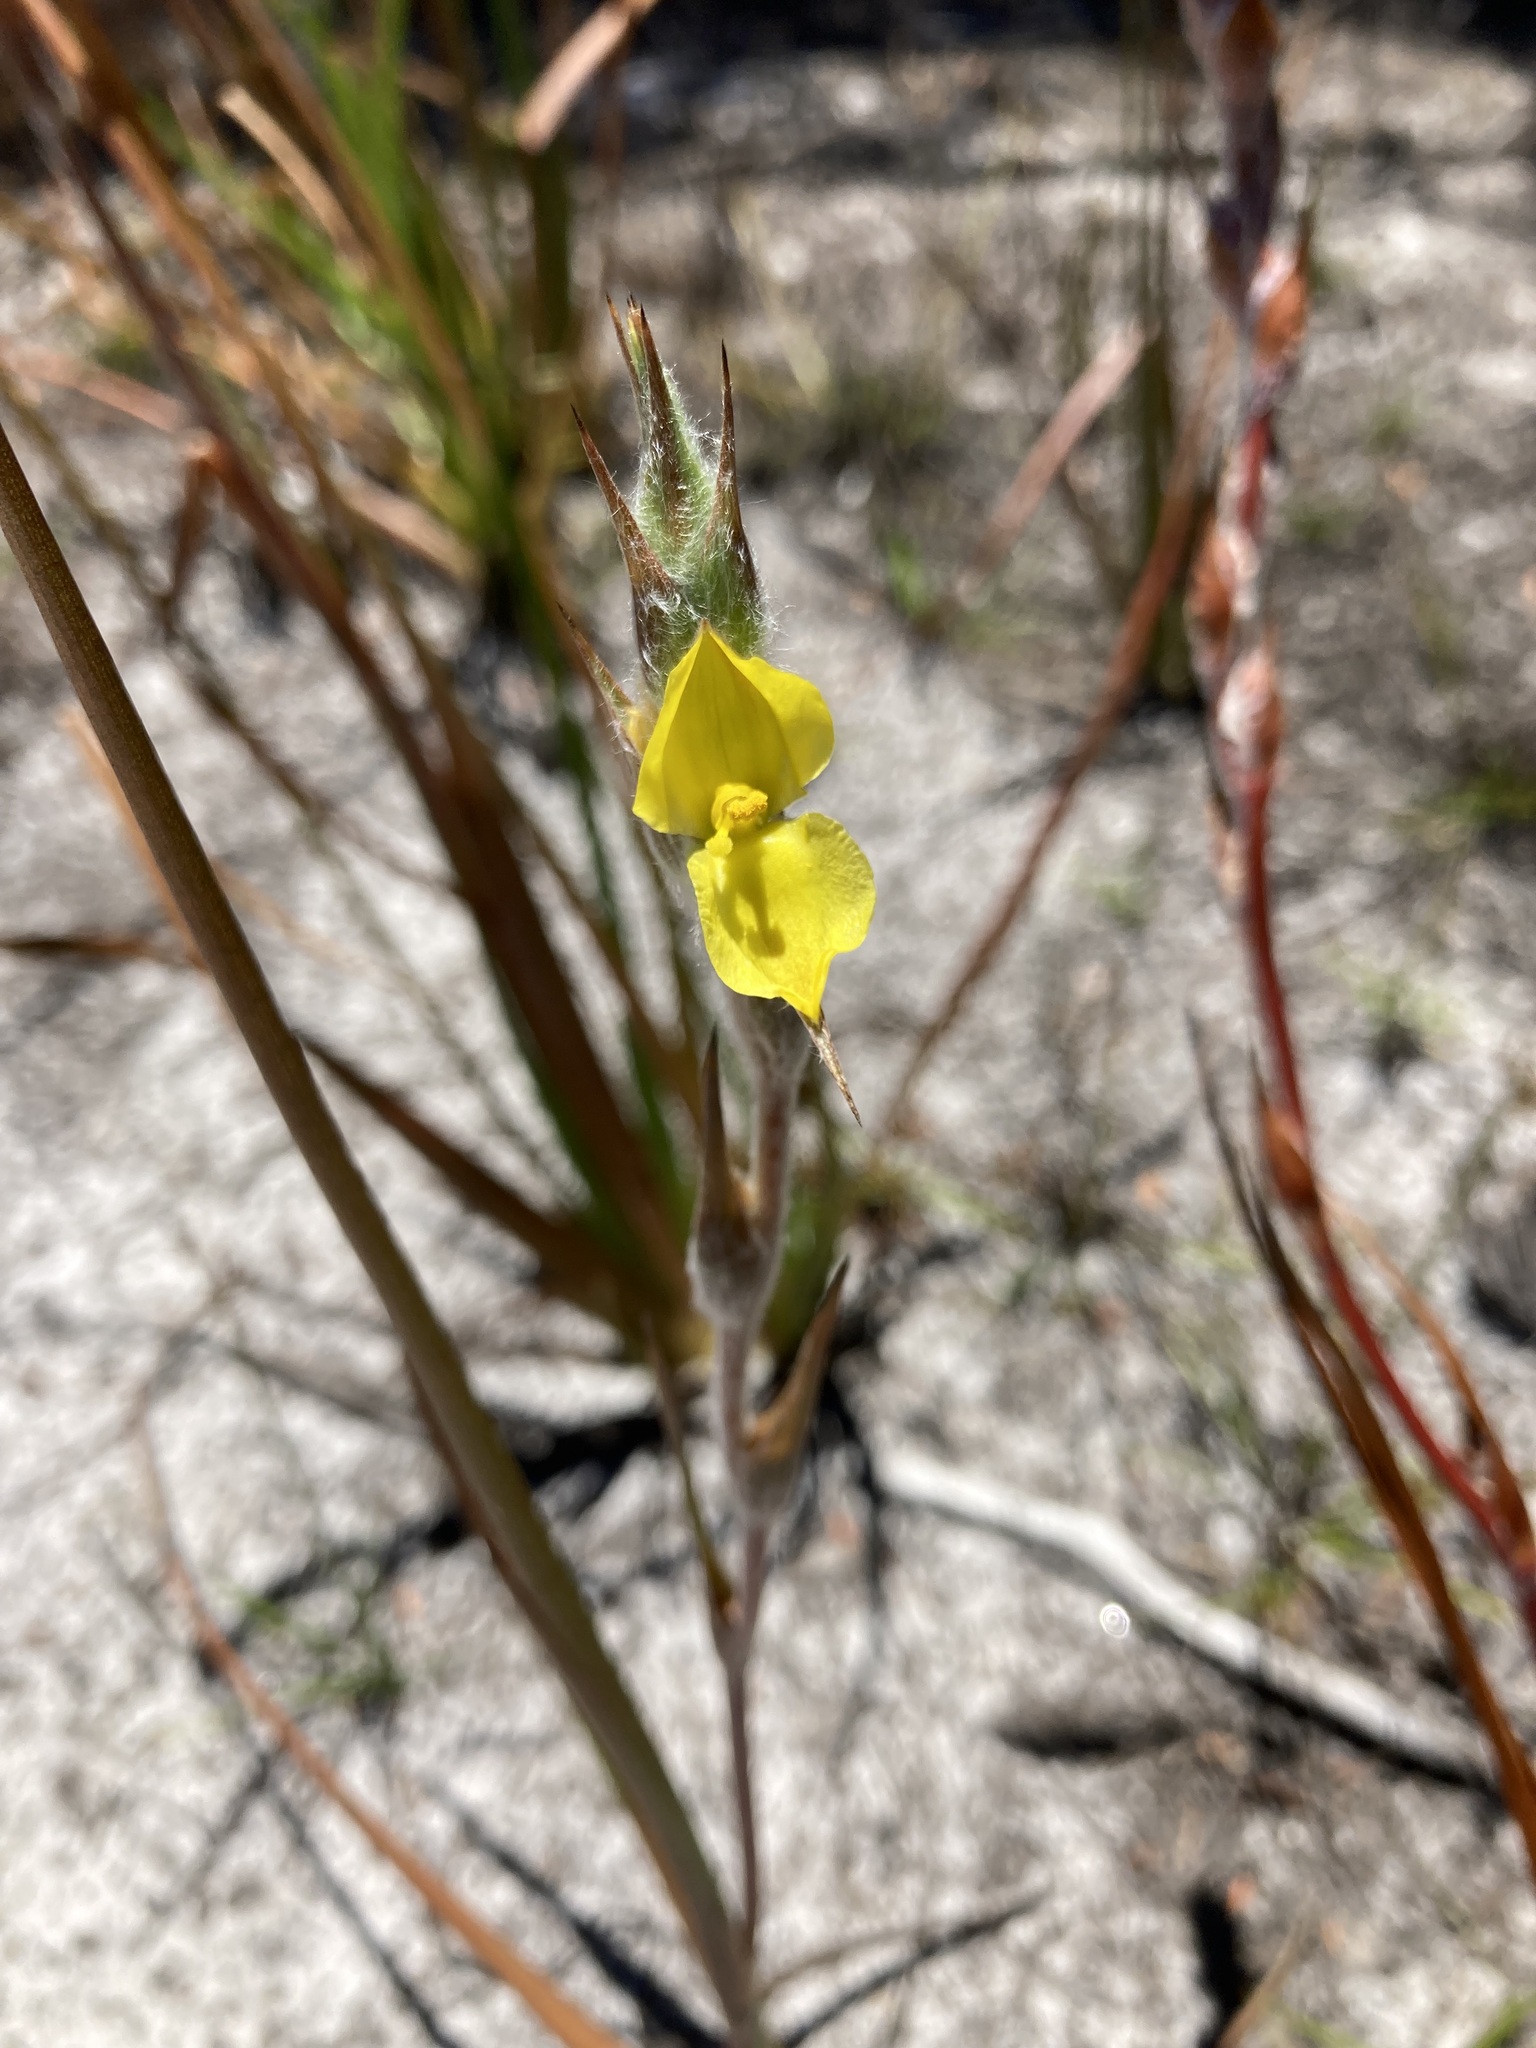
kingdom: Plantae
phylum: Tracheophyta
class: Liliopsida
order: Commelinales
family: Philydraceae
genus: Philydrum
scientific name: Philydrum lanuginosum
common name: Woolly frog's mouth
